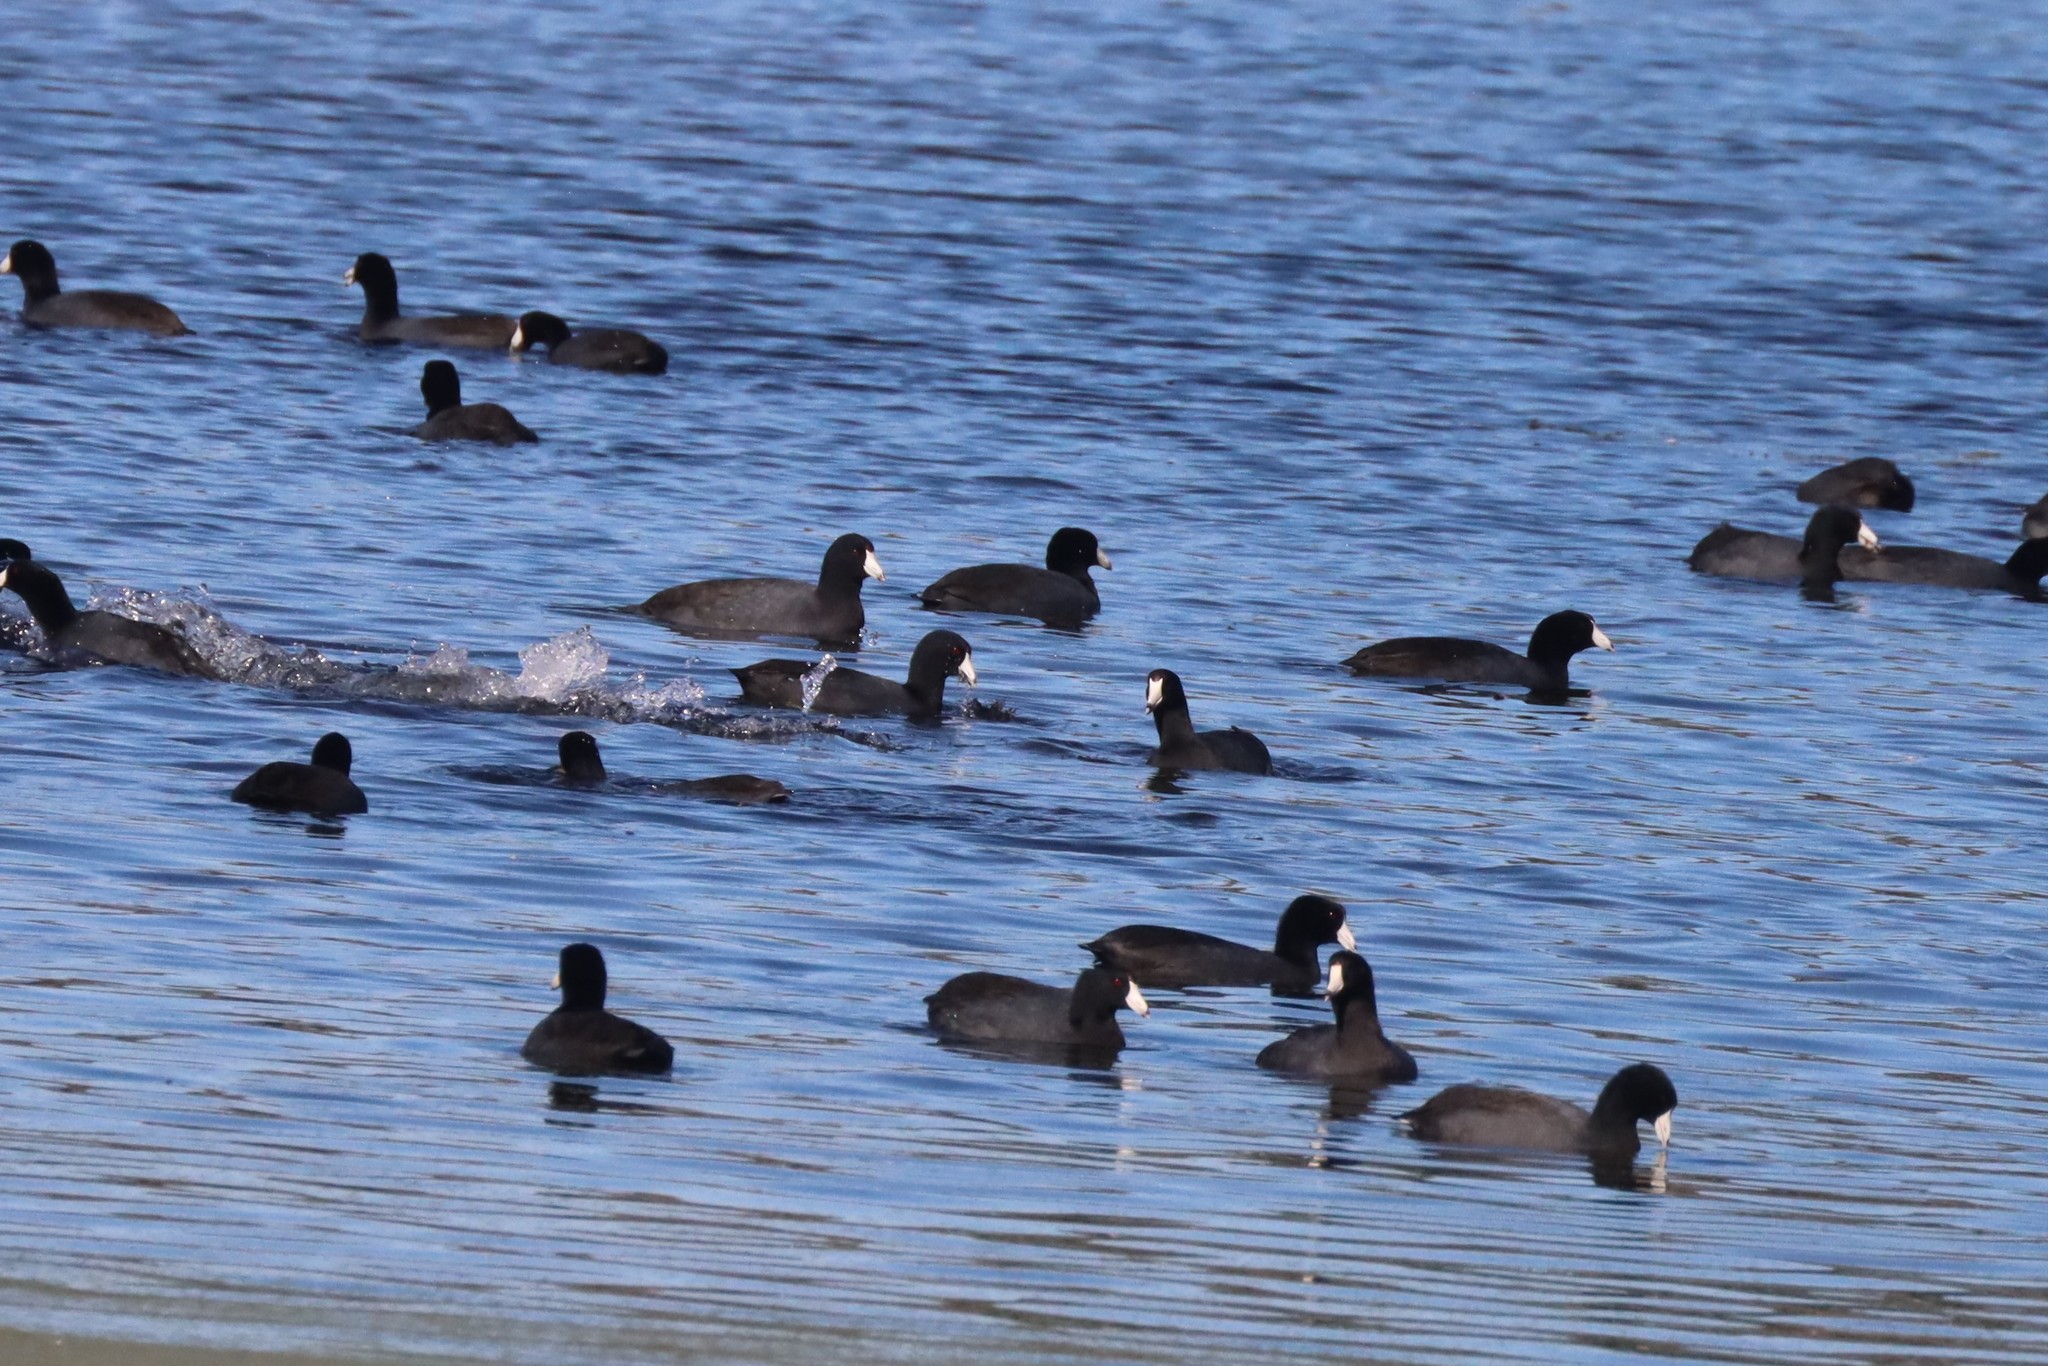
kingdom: Animalia
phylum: Chordata
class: Aves
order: Gruiformes
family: Rallidae
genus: Fulica
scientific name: Fulica americana
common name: American coot
